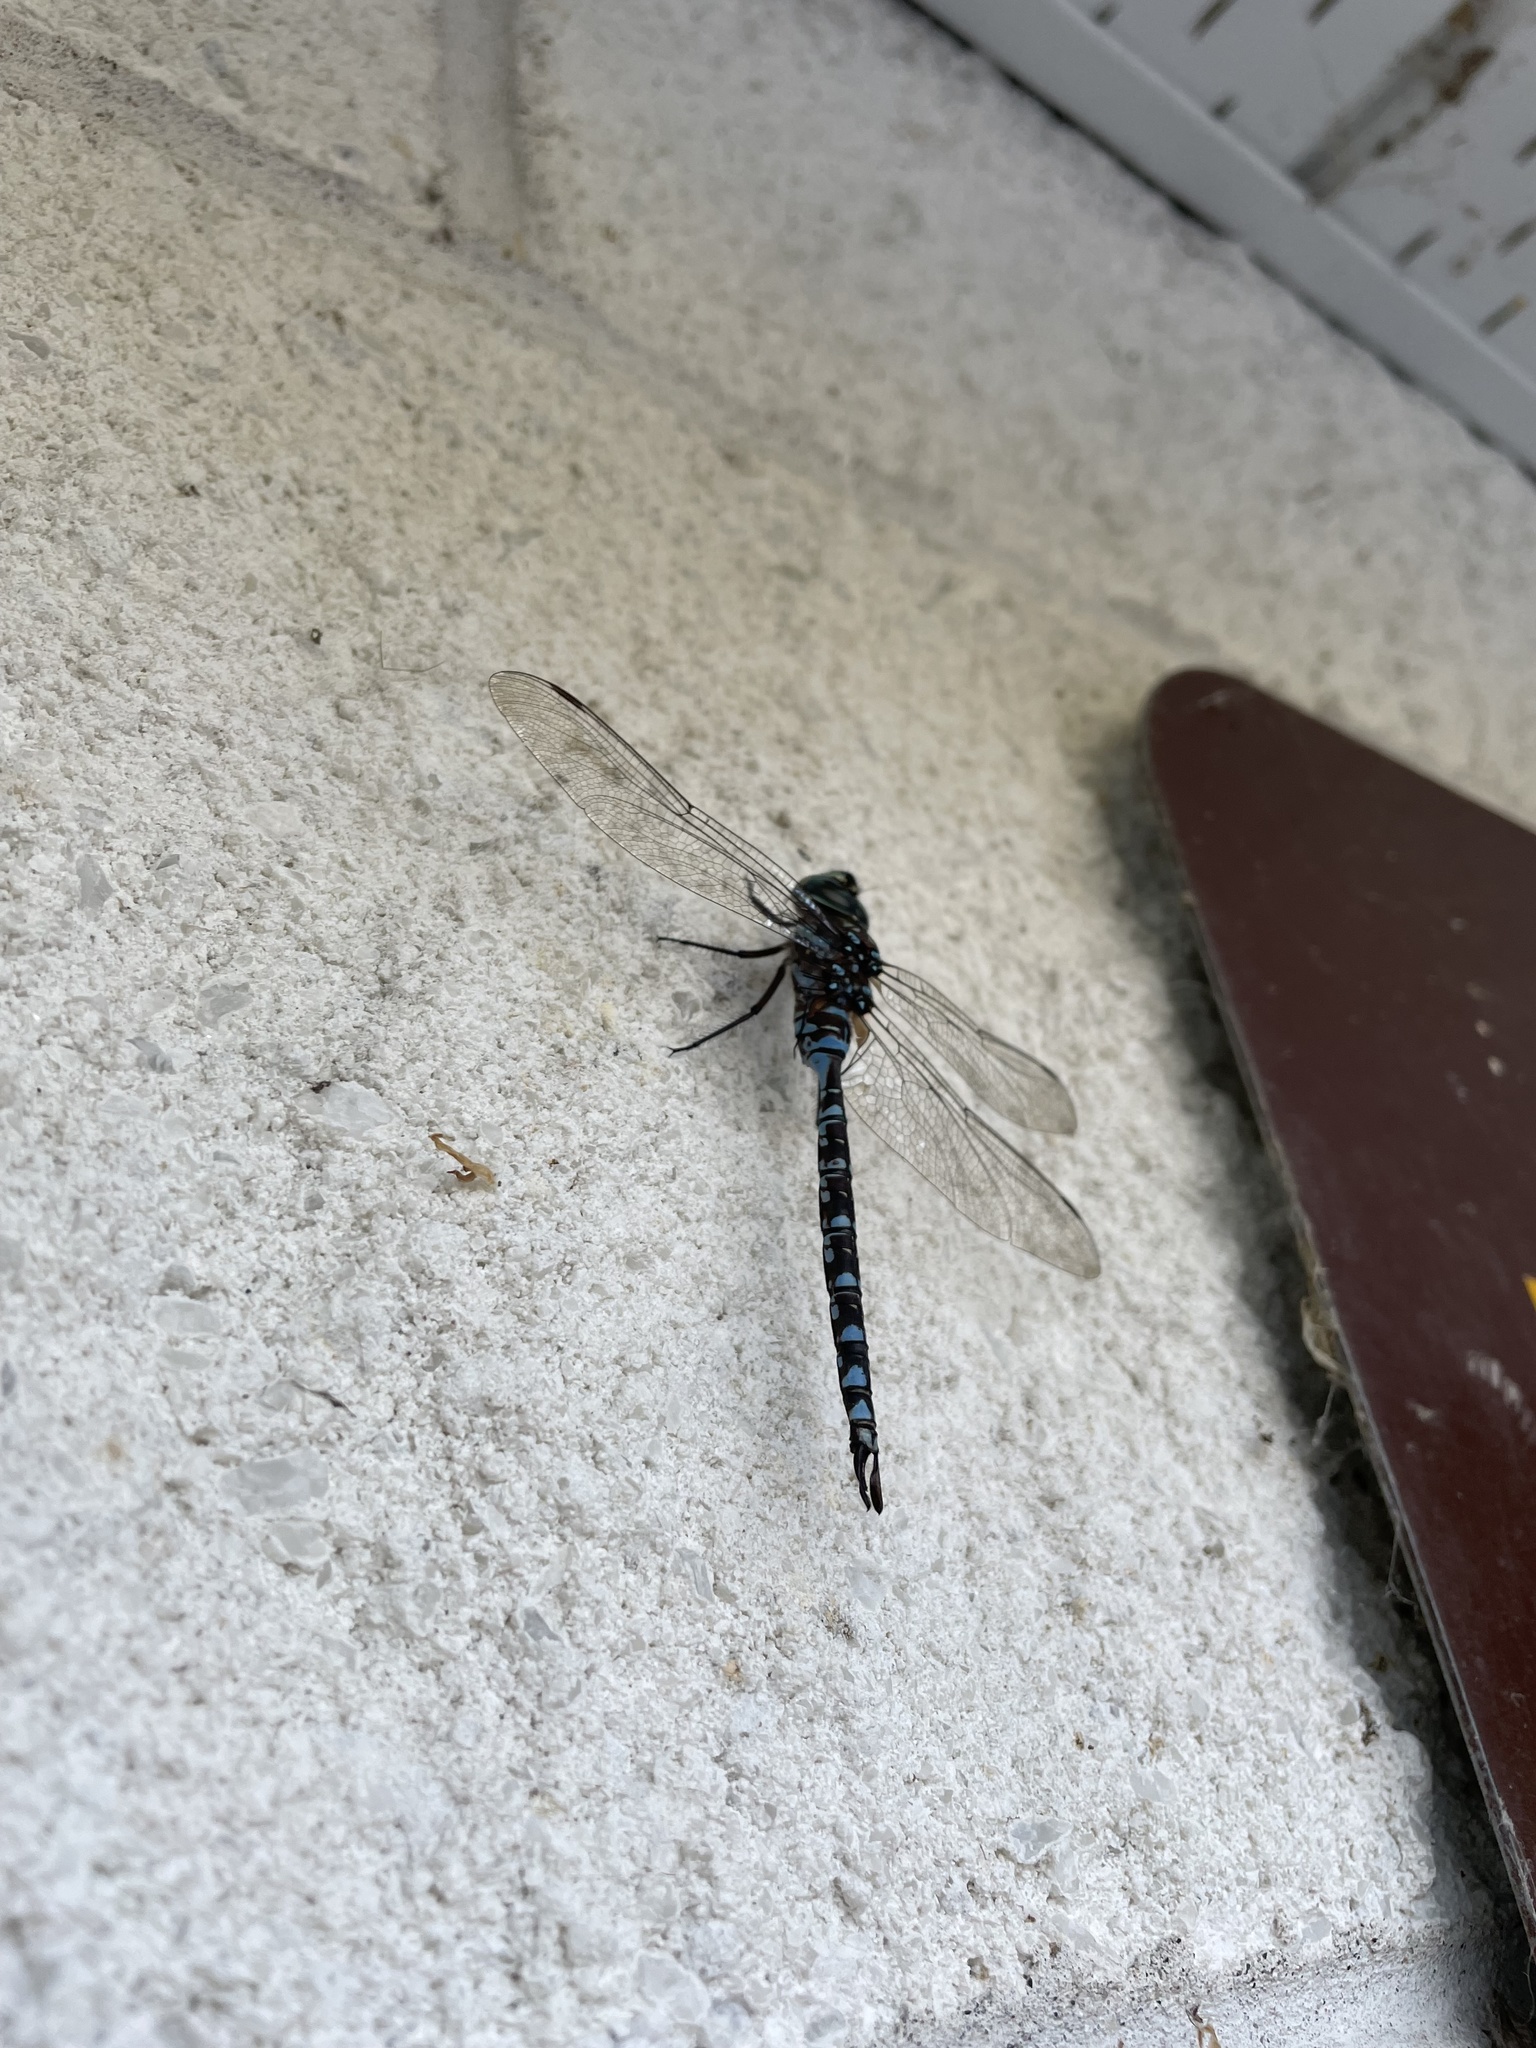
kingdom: Animalia
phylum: Arthropoda
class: Insecta
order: Odonata
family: Aeshnidae
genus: Aeshna
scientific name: Aeshna canadensis
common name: Canada darner
